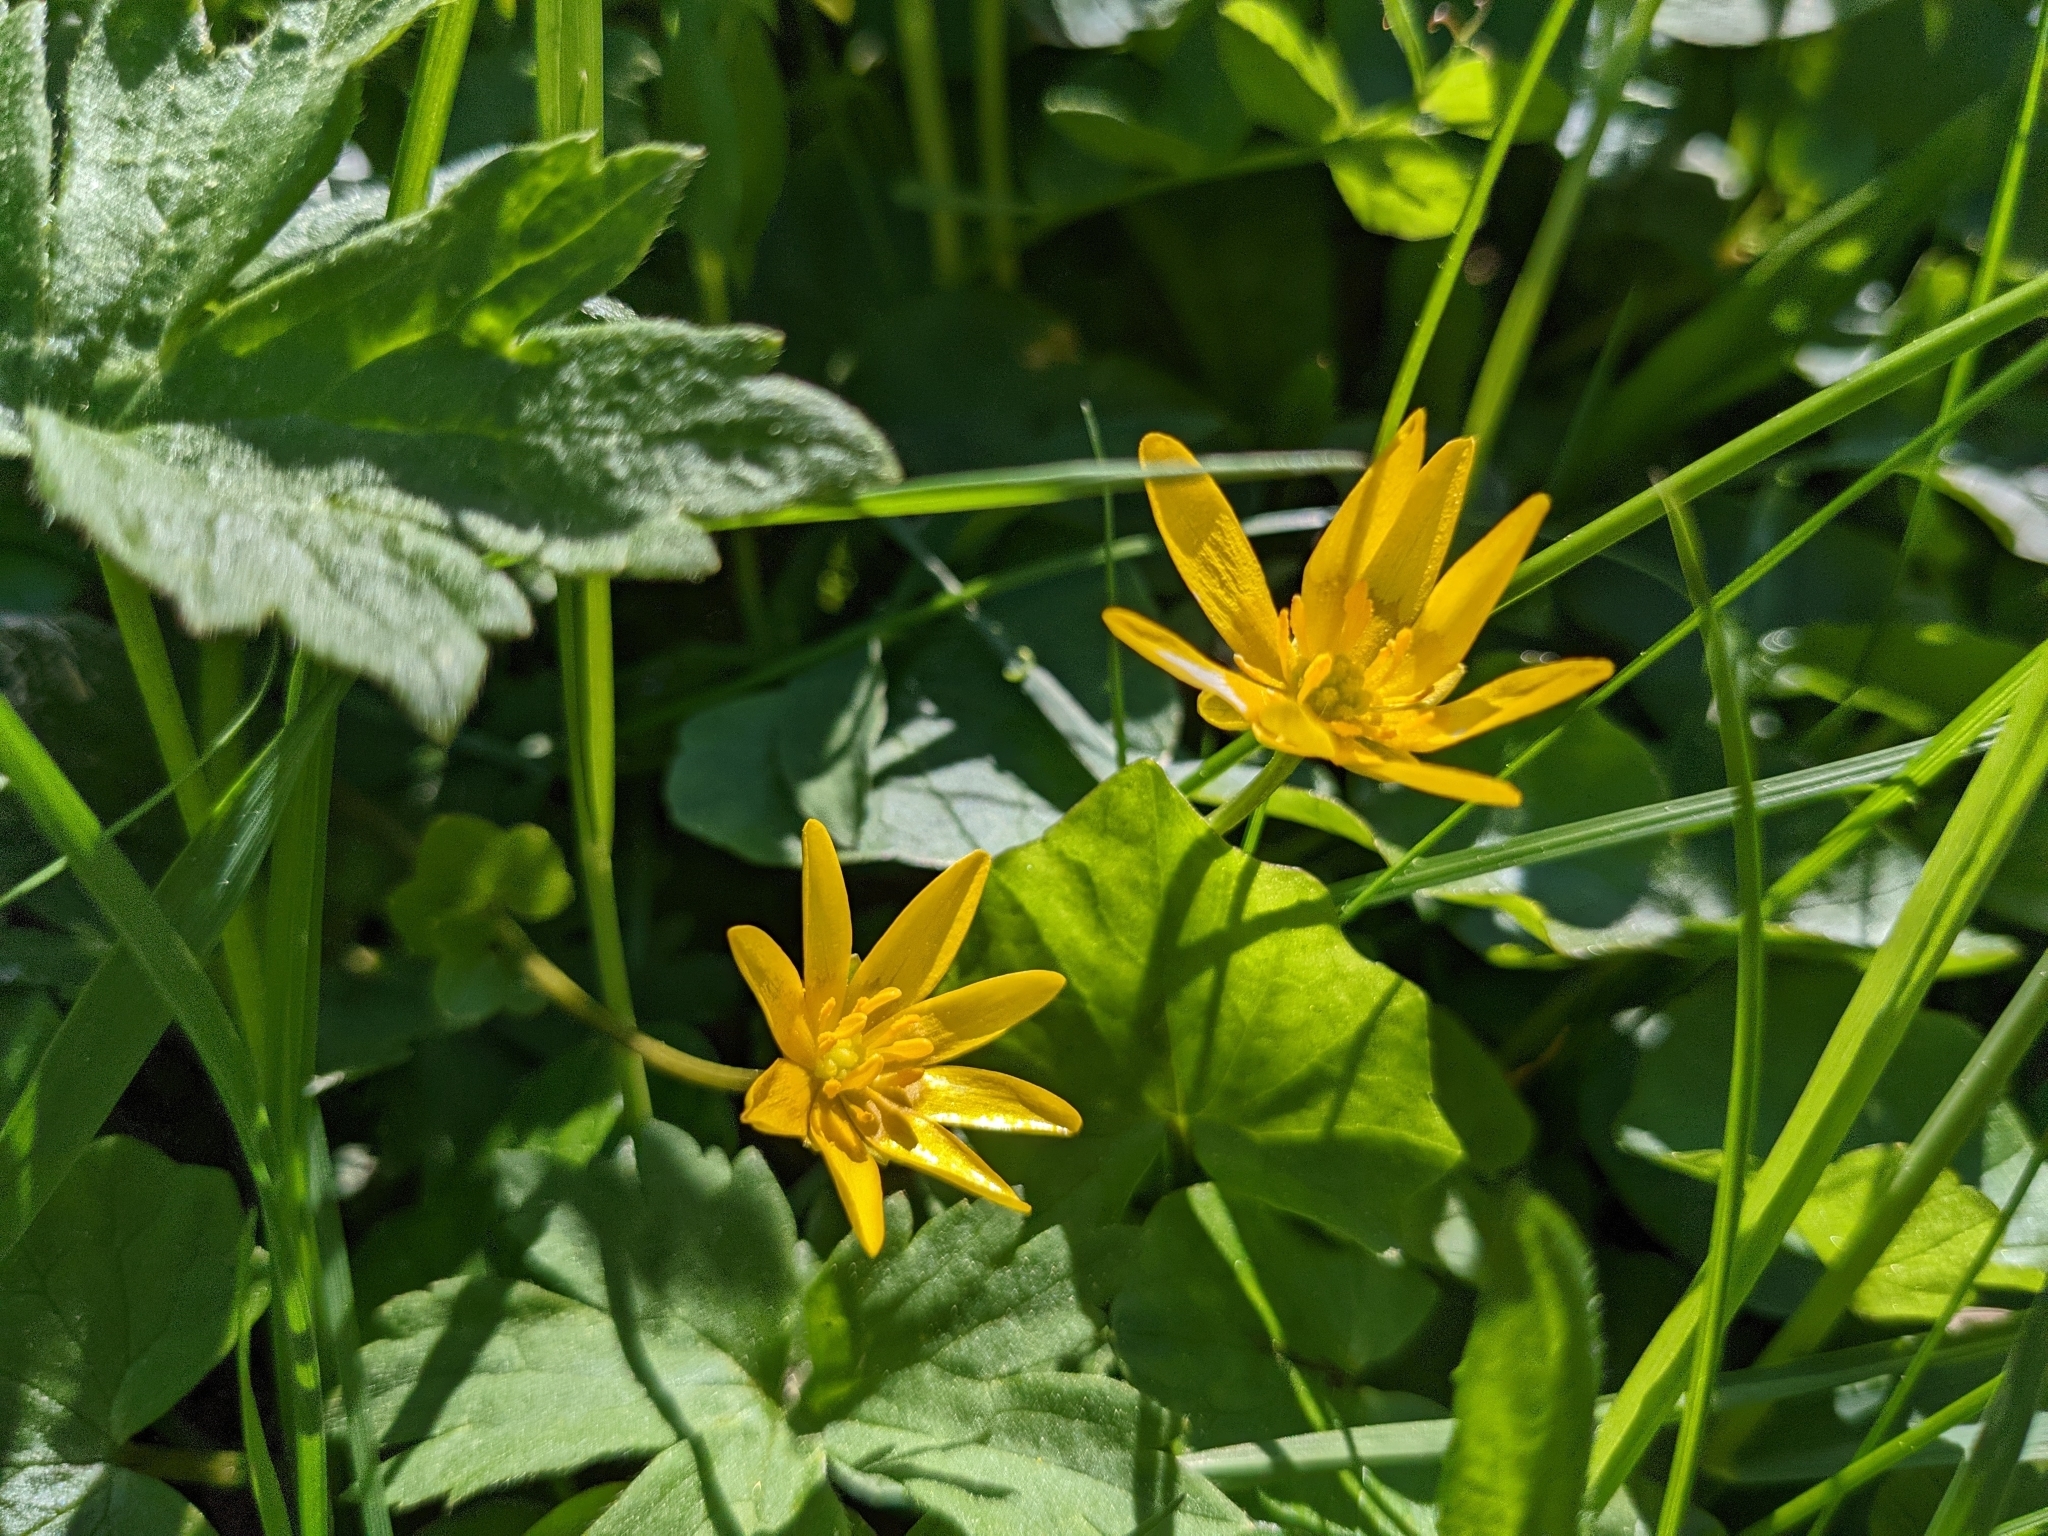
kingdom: Plantae
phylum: Tracheophyta
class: Magnoliopsida
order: Ranunculales
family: Ranunculaceae
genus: Ficaria
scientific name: Ficaria verna
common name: Lesser celandine
